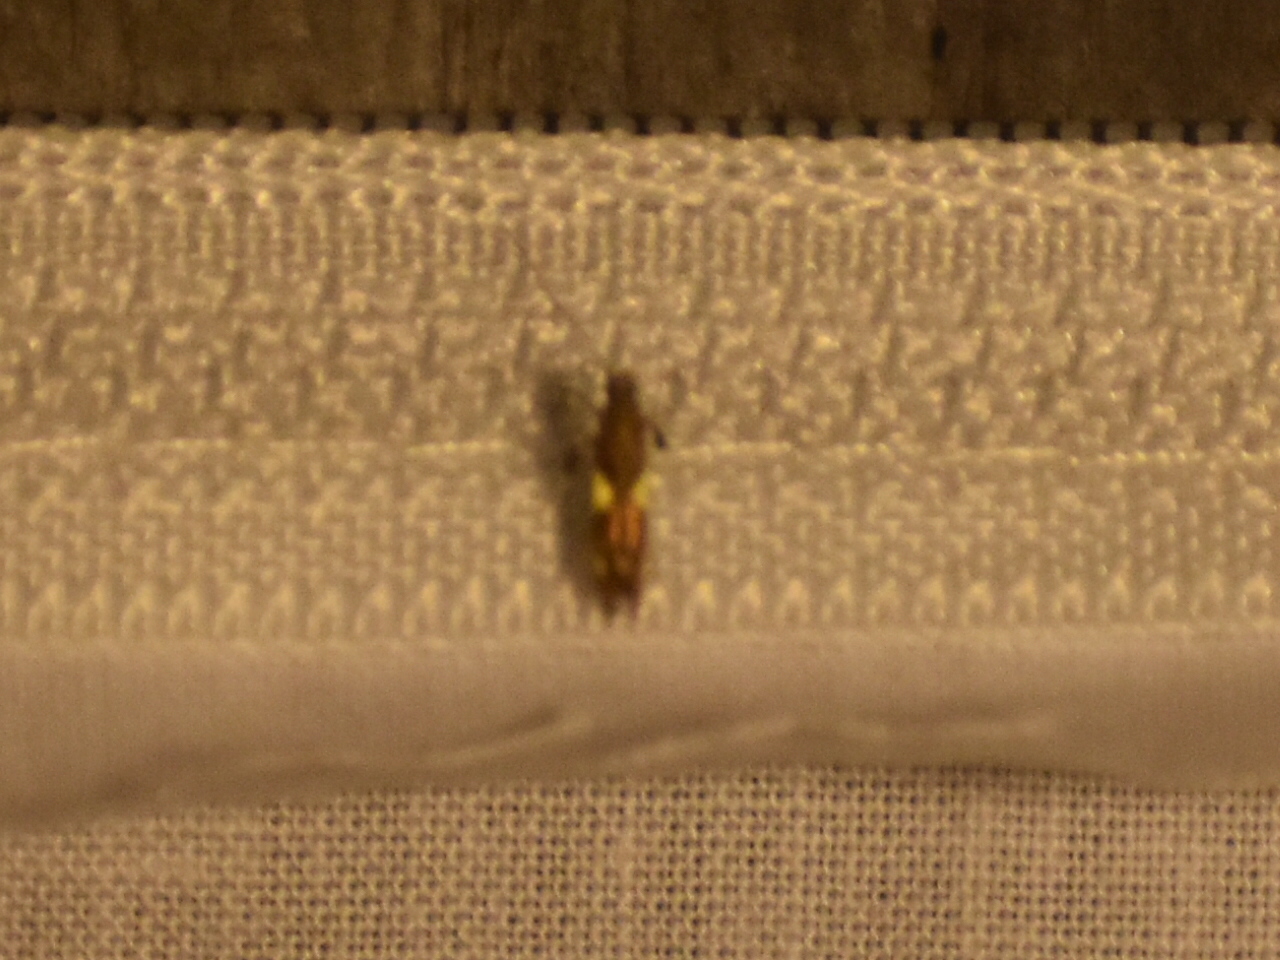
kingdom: Animalia
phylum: Arthropoda
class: Insecta
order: Lepidoptera
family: Gracillariidae
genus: Caloptilia
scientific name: Caloptilia bimaculatella
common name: Maple caloptilia moth
